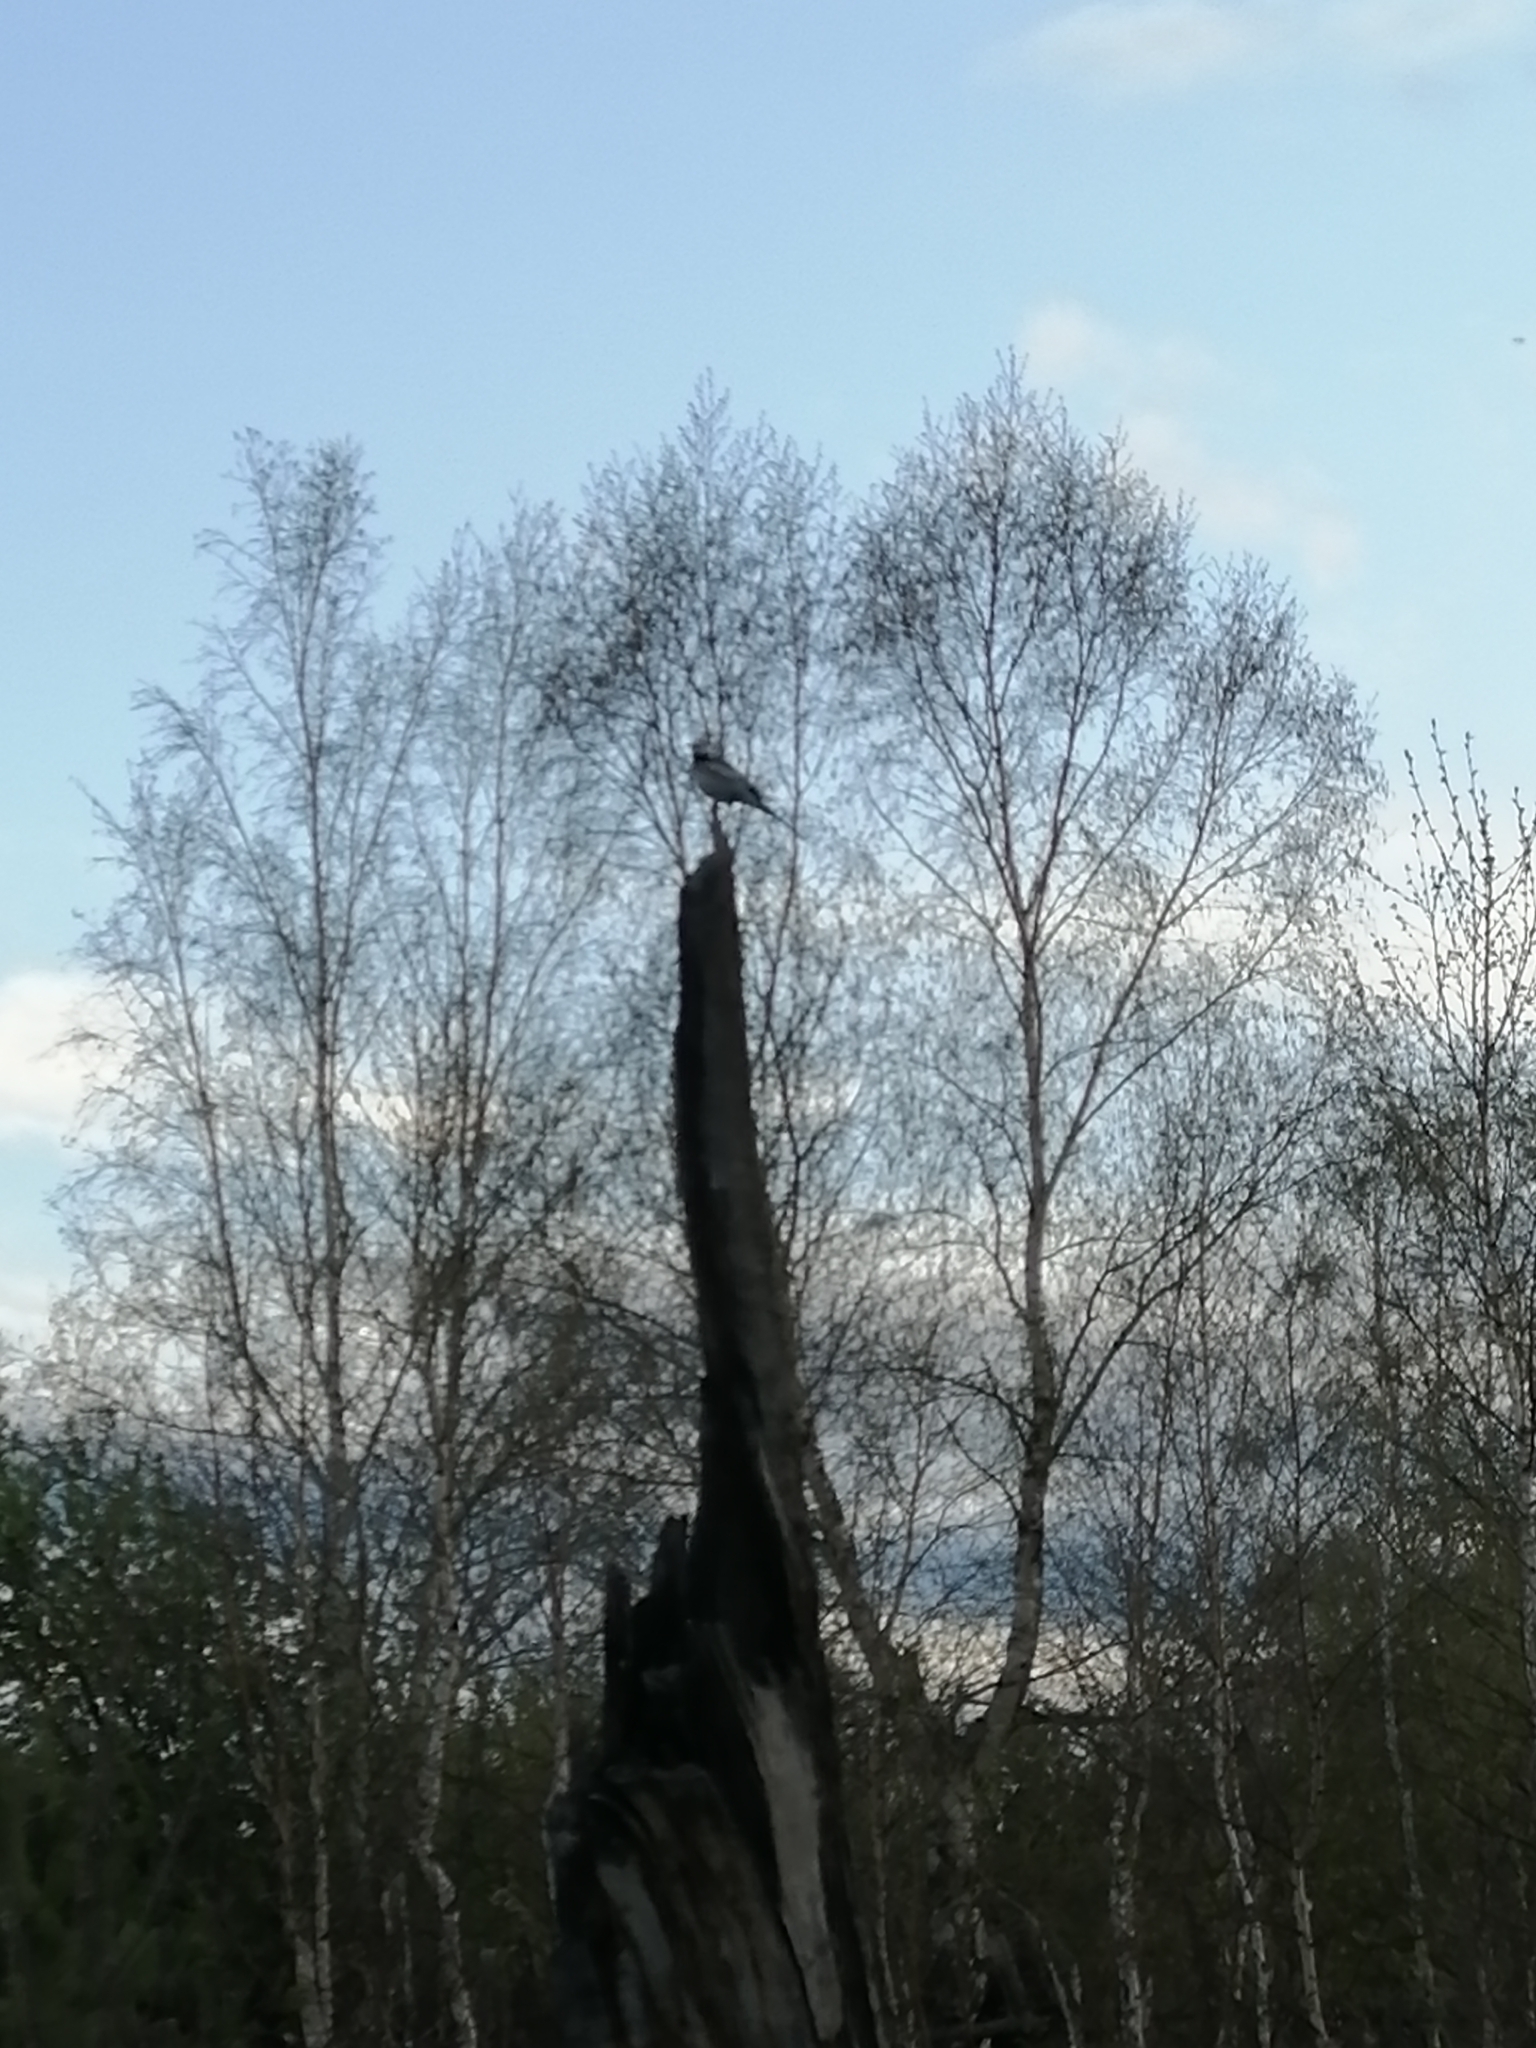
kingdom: Animalia
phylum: Chordata
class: Aves
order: Passeriformes
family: Motacillidae
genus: Motacilla
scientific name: Motacilla alba
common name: White wagtail
